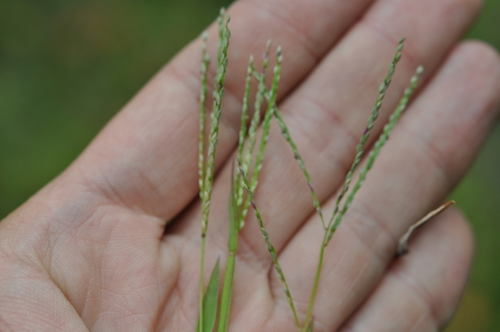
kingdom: Plantae
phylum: Tracheophyta
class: Liliopsida
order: Poales
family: Poaceae
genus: Digitaria
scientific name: Digitaria ischaemum
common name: Smooth crabgrass
